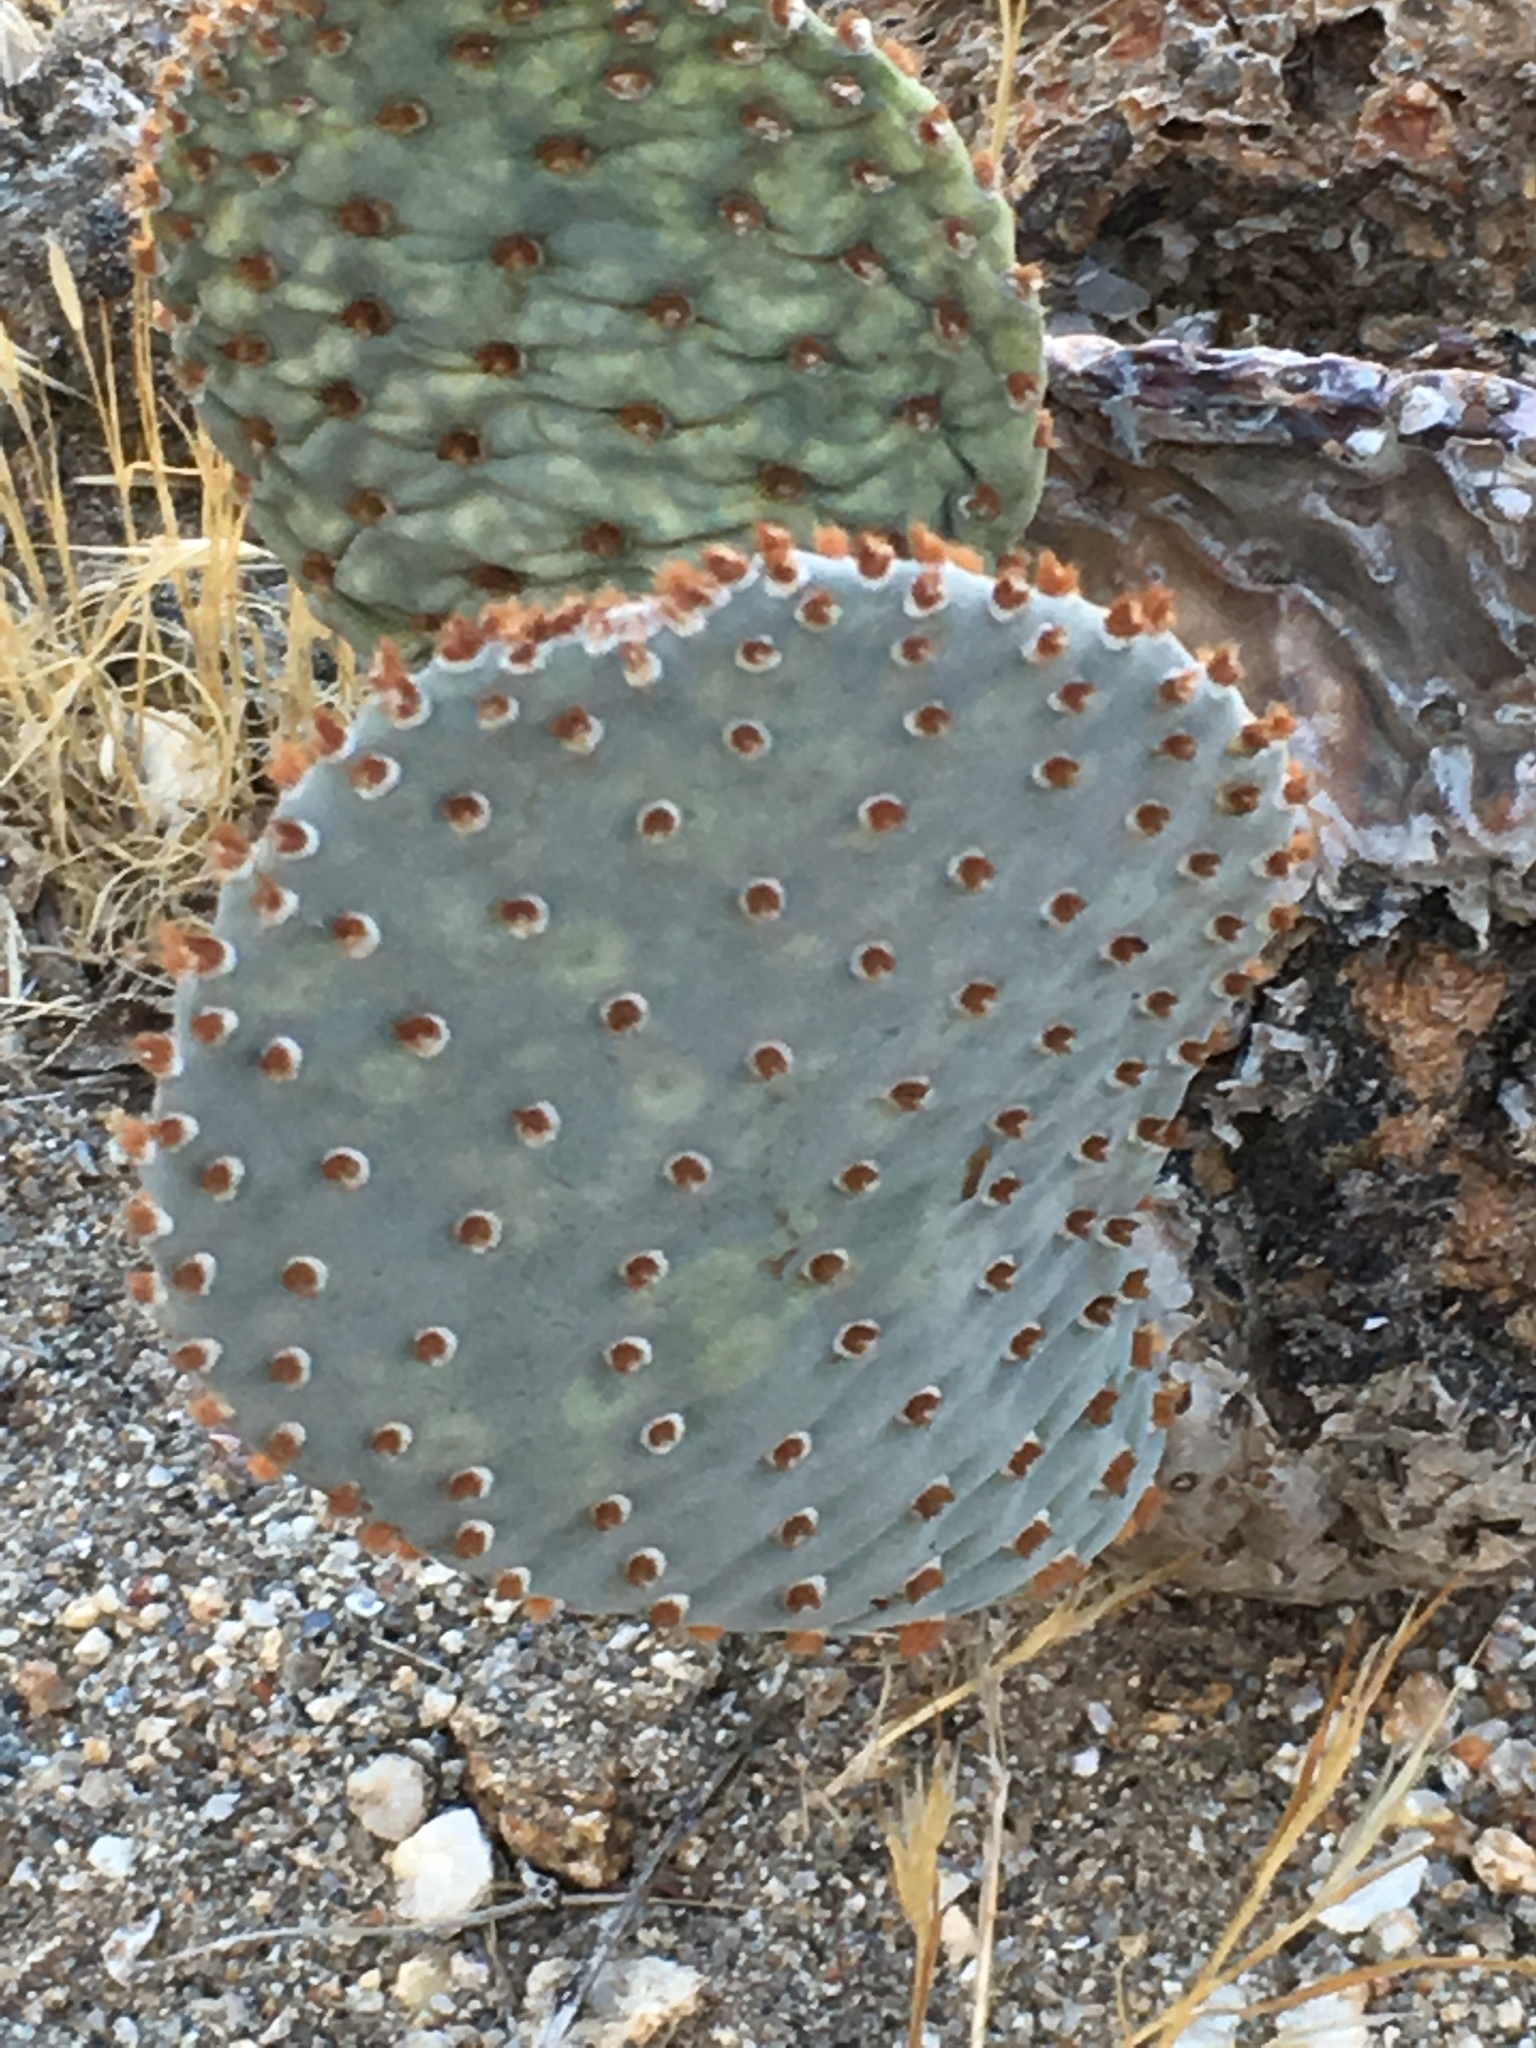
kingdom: Plantae
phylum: Tracheophyta
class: Magnoliopsida
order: Caryophyllales
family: Cactaceae
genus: Opuntia
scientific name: Opuntia basilaris
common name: Beavertail prickly-pear
